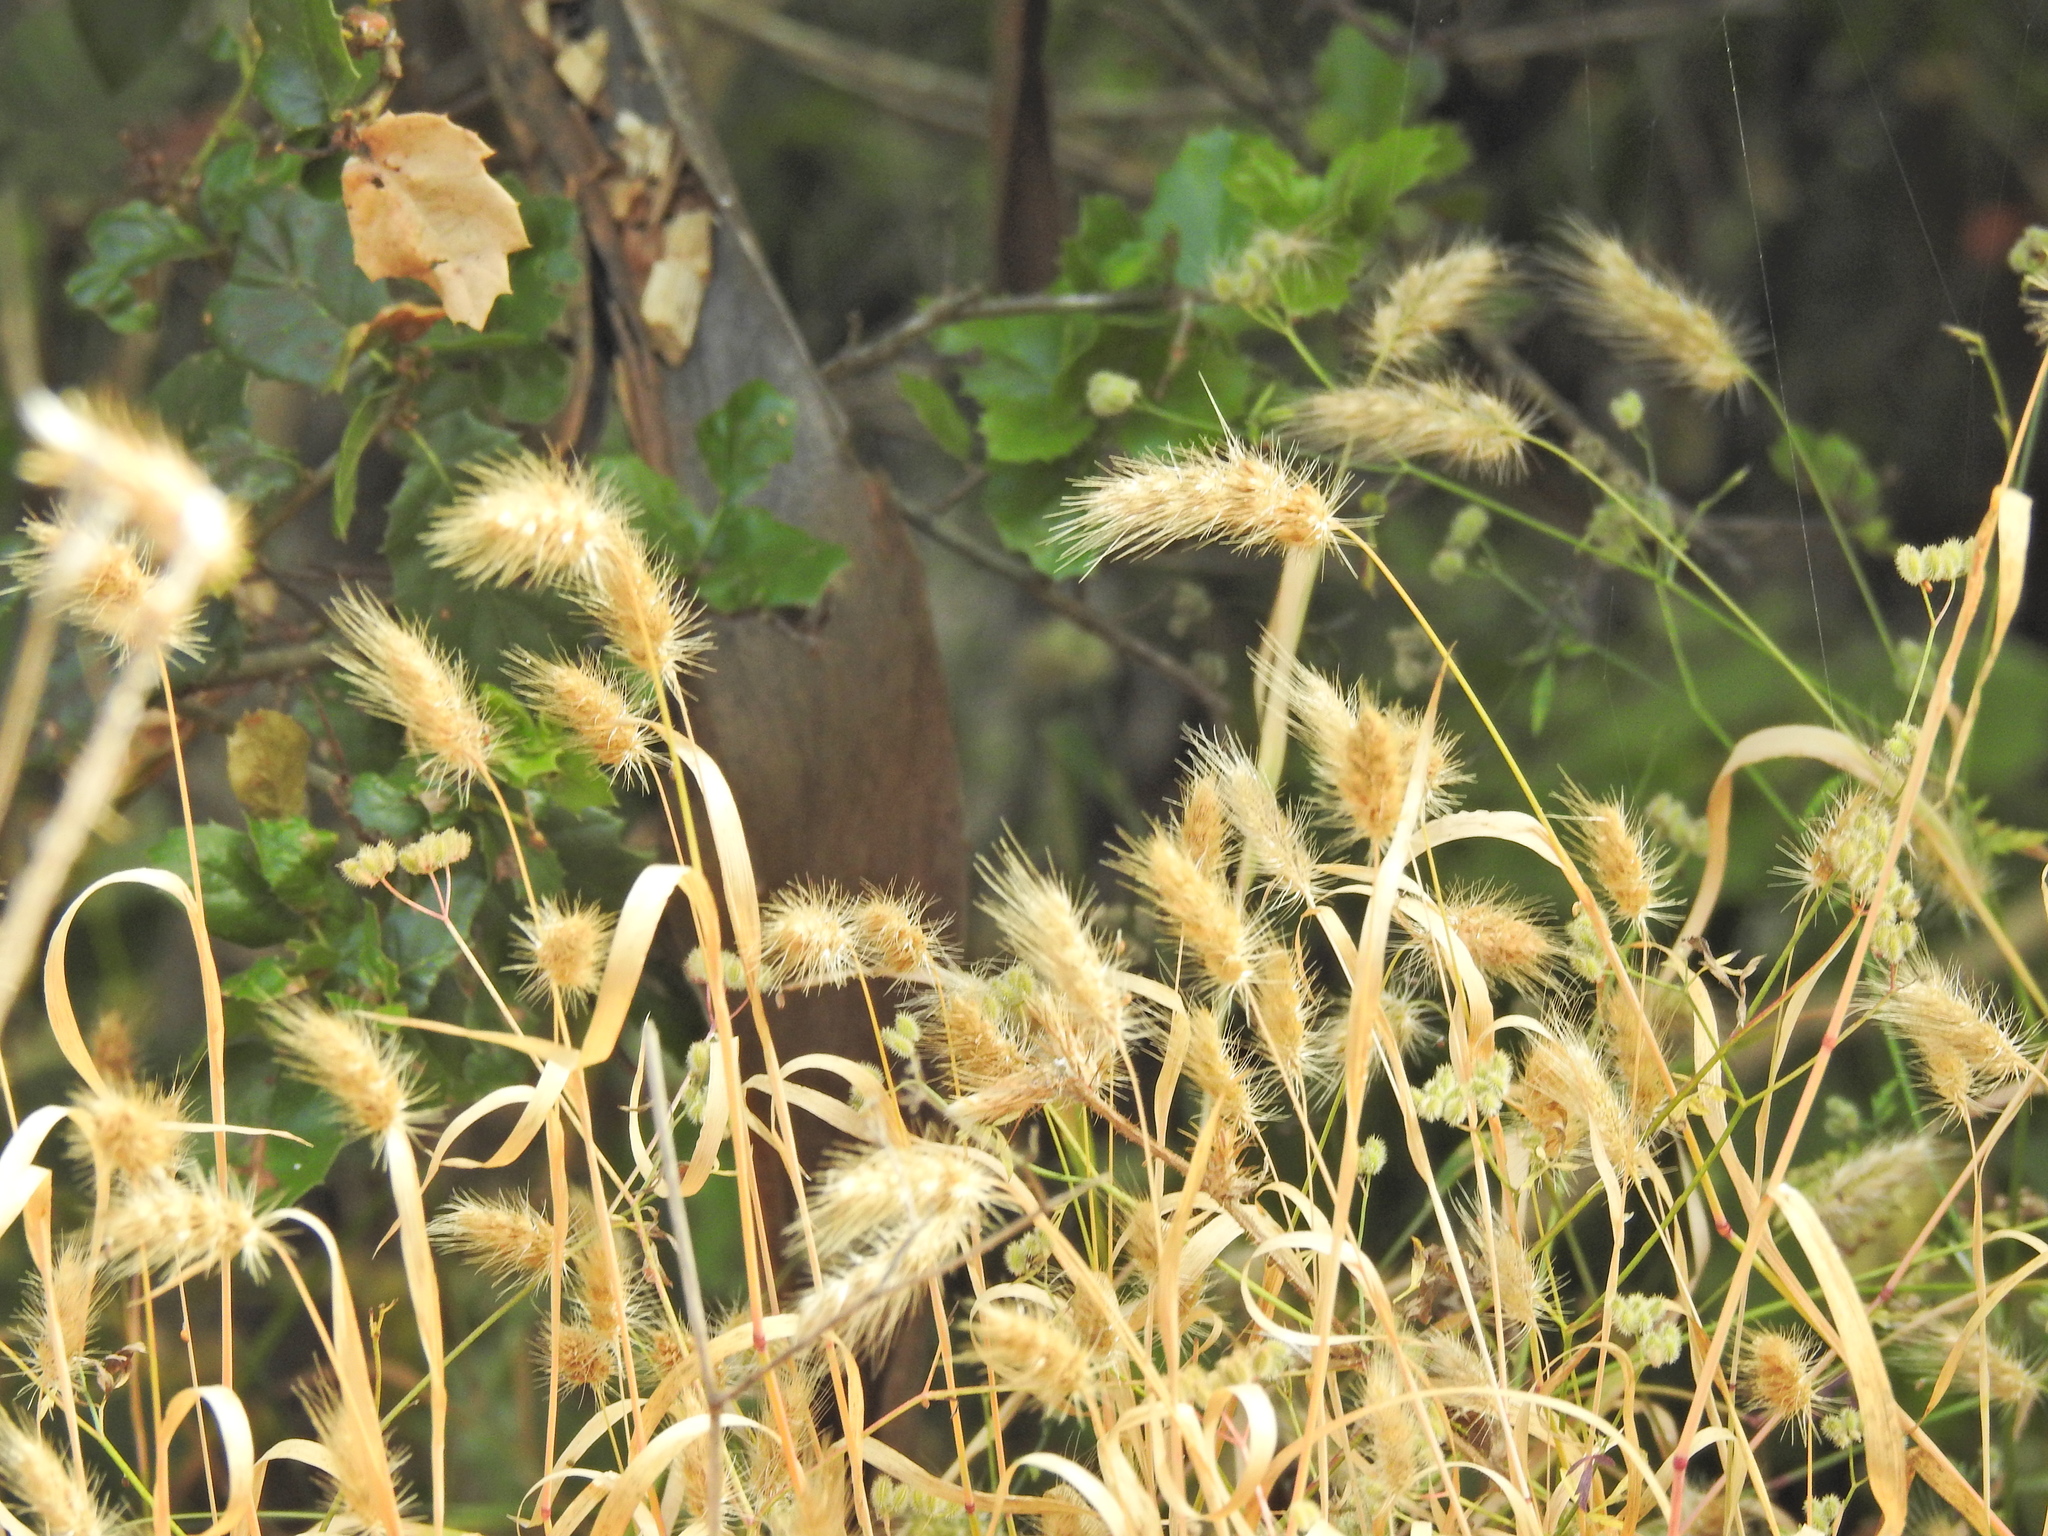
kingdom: Plantae
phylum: Tracheophyta
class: Liliopsida
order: Poales
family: Poaceae
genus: Cynosurus
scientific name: Cynosurus echinatus
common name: Rough dog's-tail
